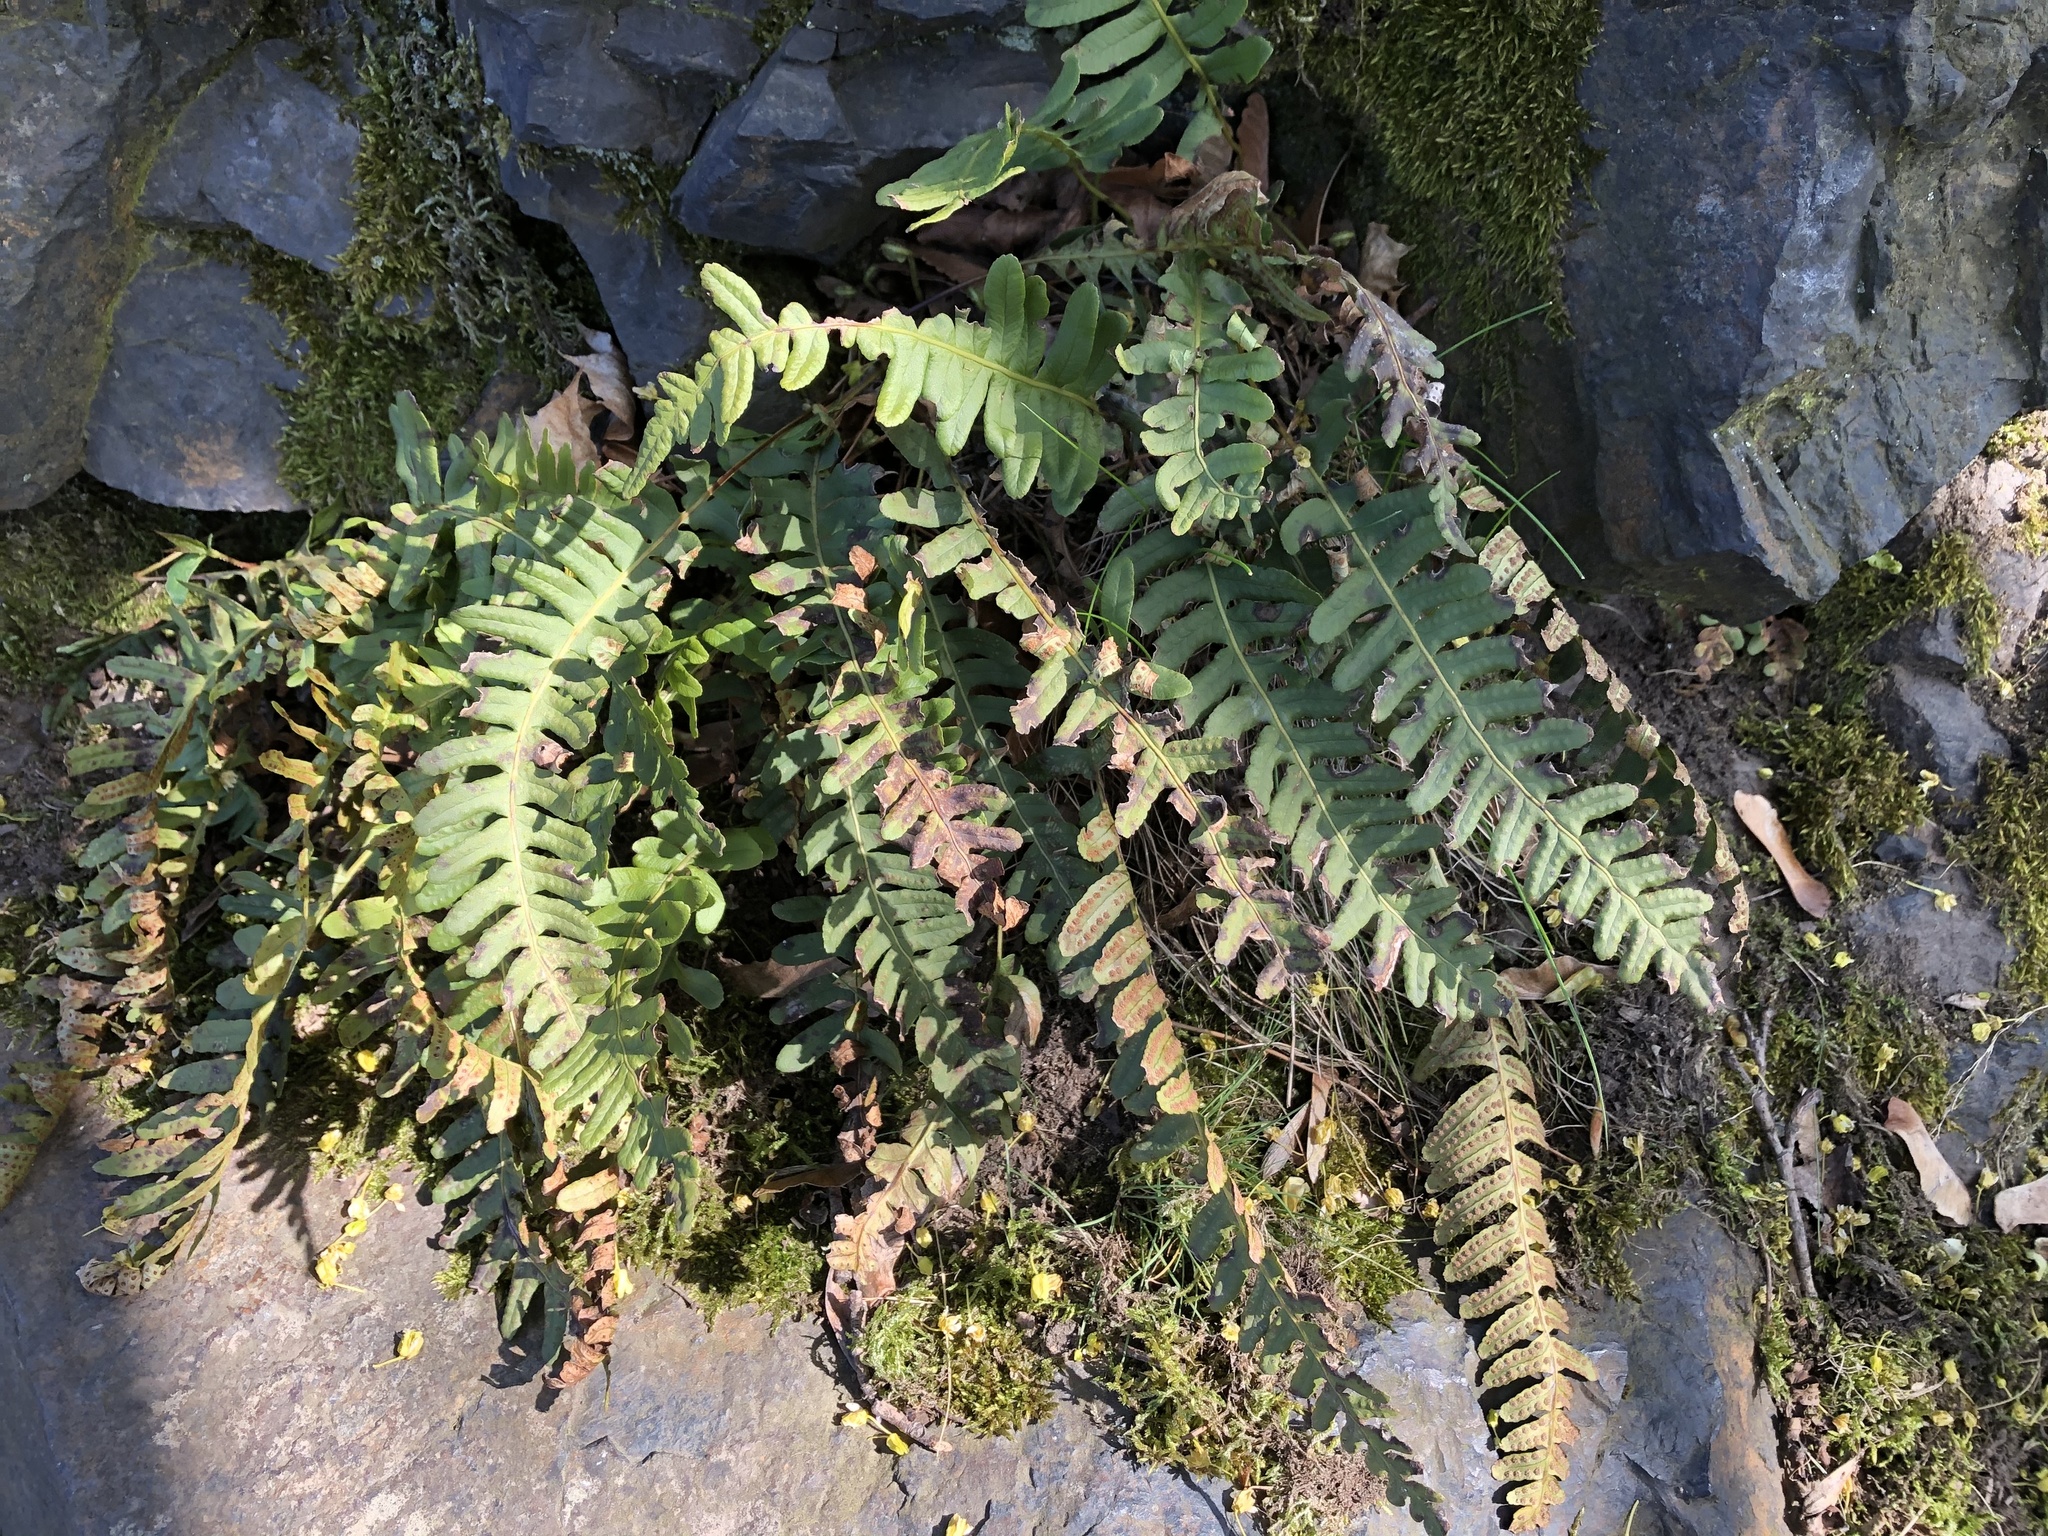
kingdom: Plantae
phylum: Tracheophyta
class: Polypodiopsida
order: Polypodiales
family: Polypodiaceae
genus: Polypodium
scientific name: Polypodium vulgare
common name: Common polypody
